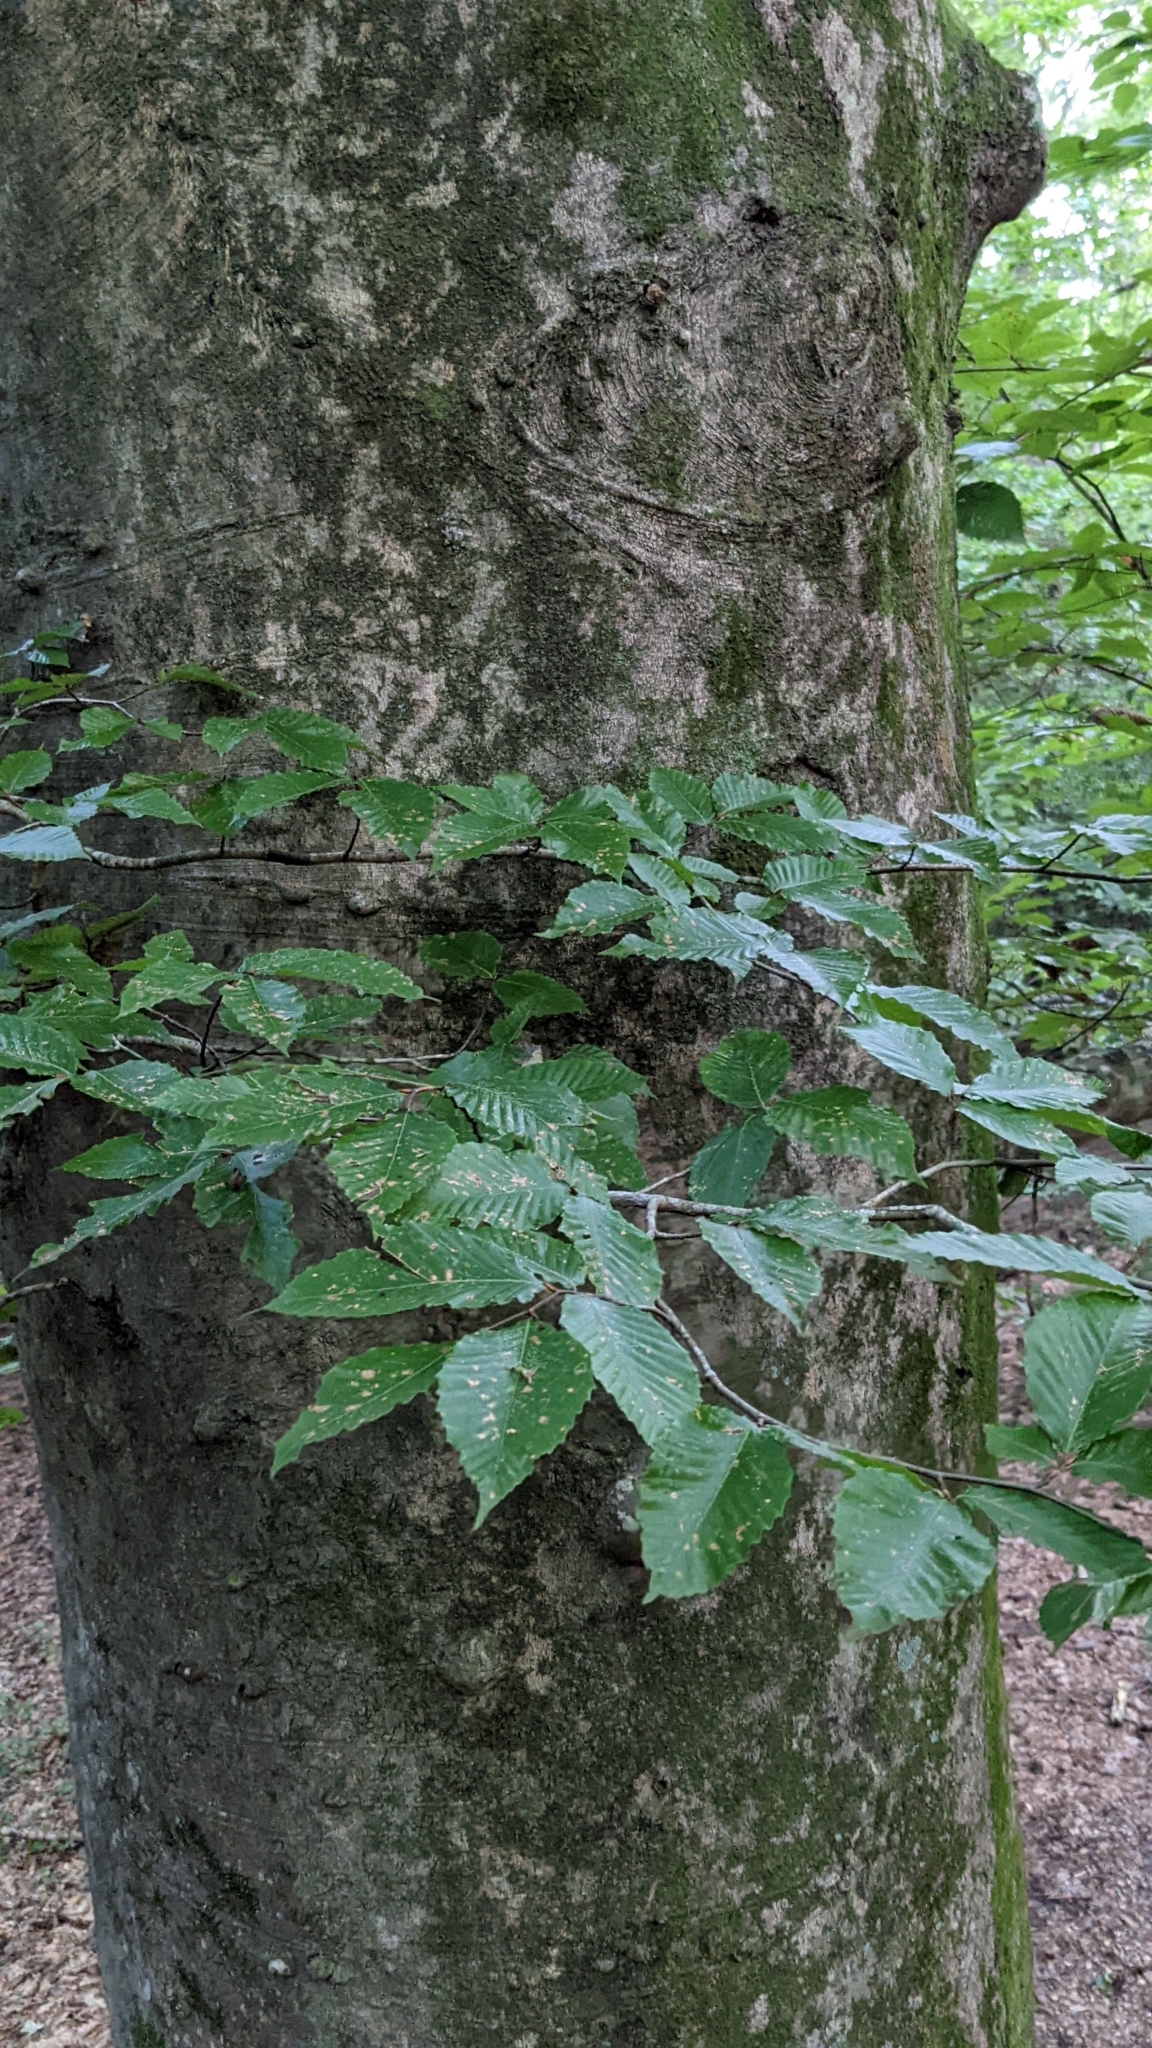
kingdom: Plantae
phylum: Tracheophyta
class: Magnoliopsida
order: Fagales
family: Fagaceae
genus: Fagus
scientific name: Fagus grandifolia
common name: American beech
